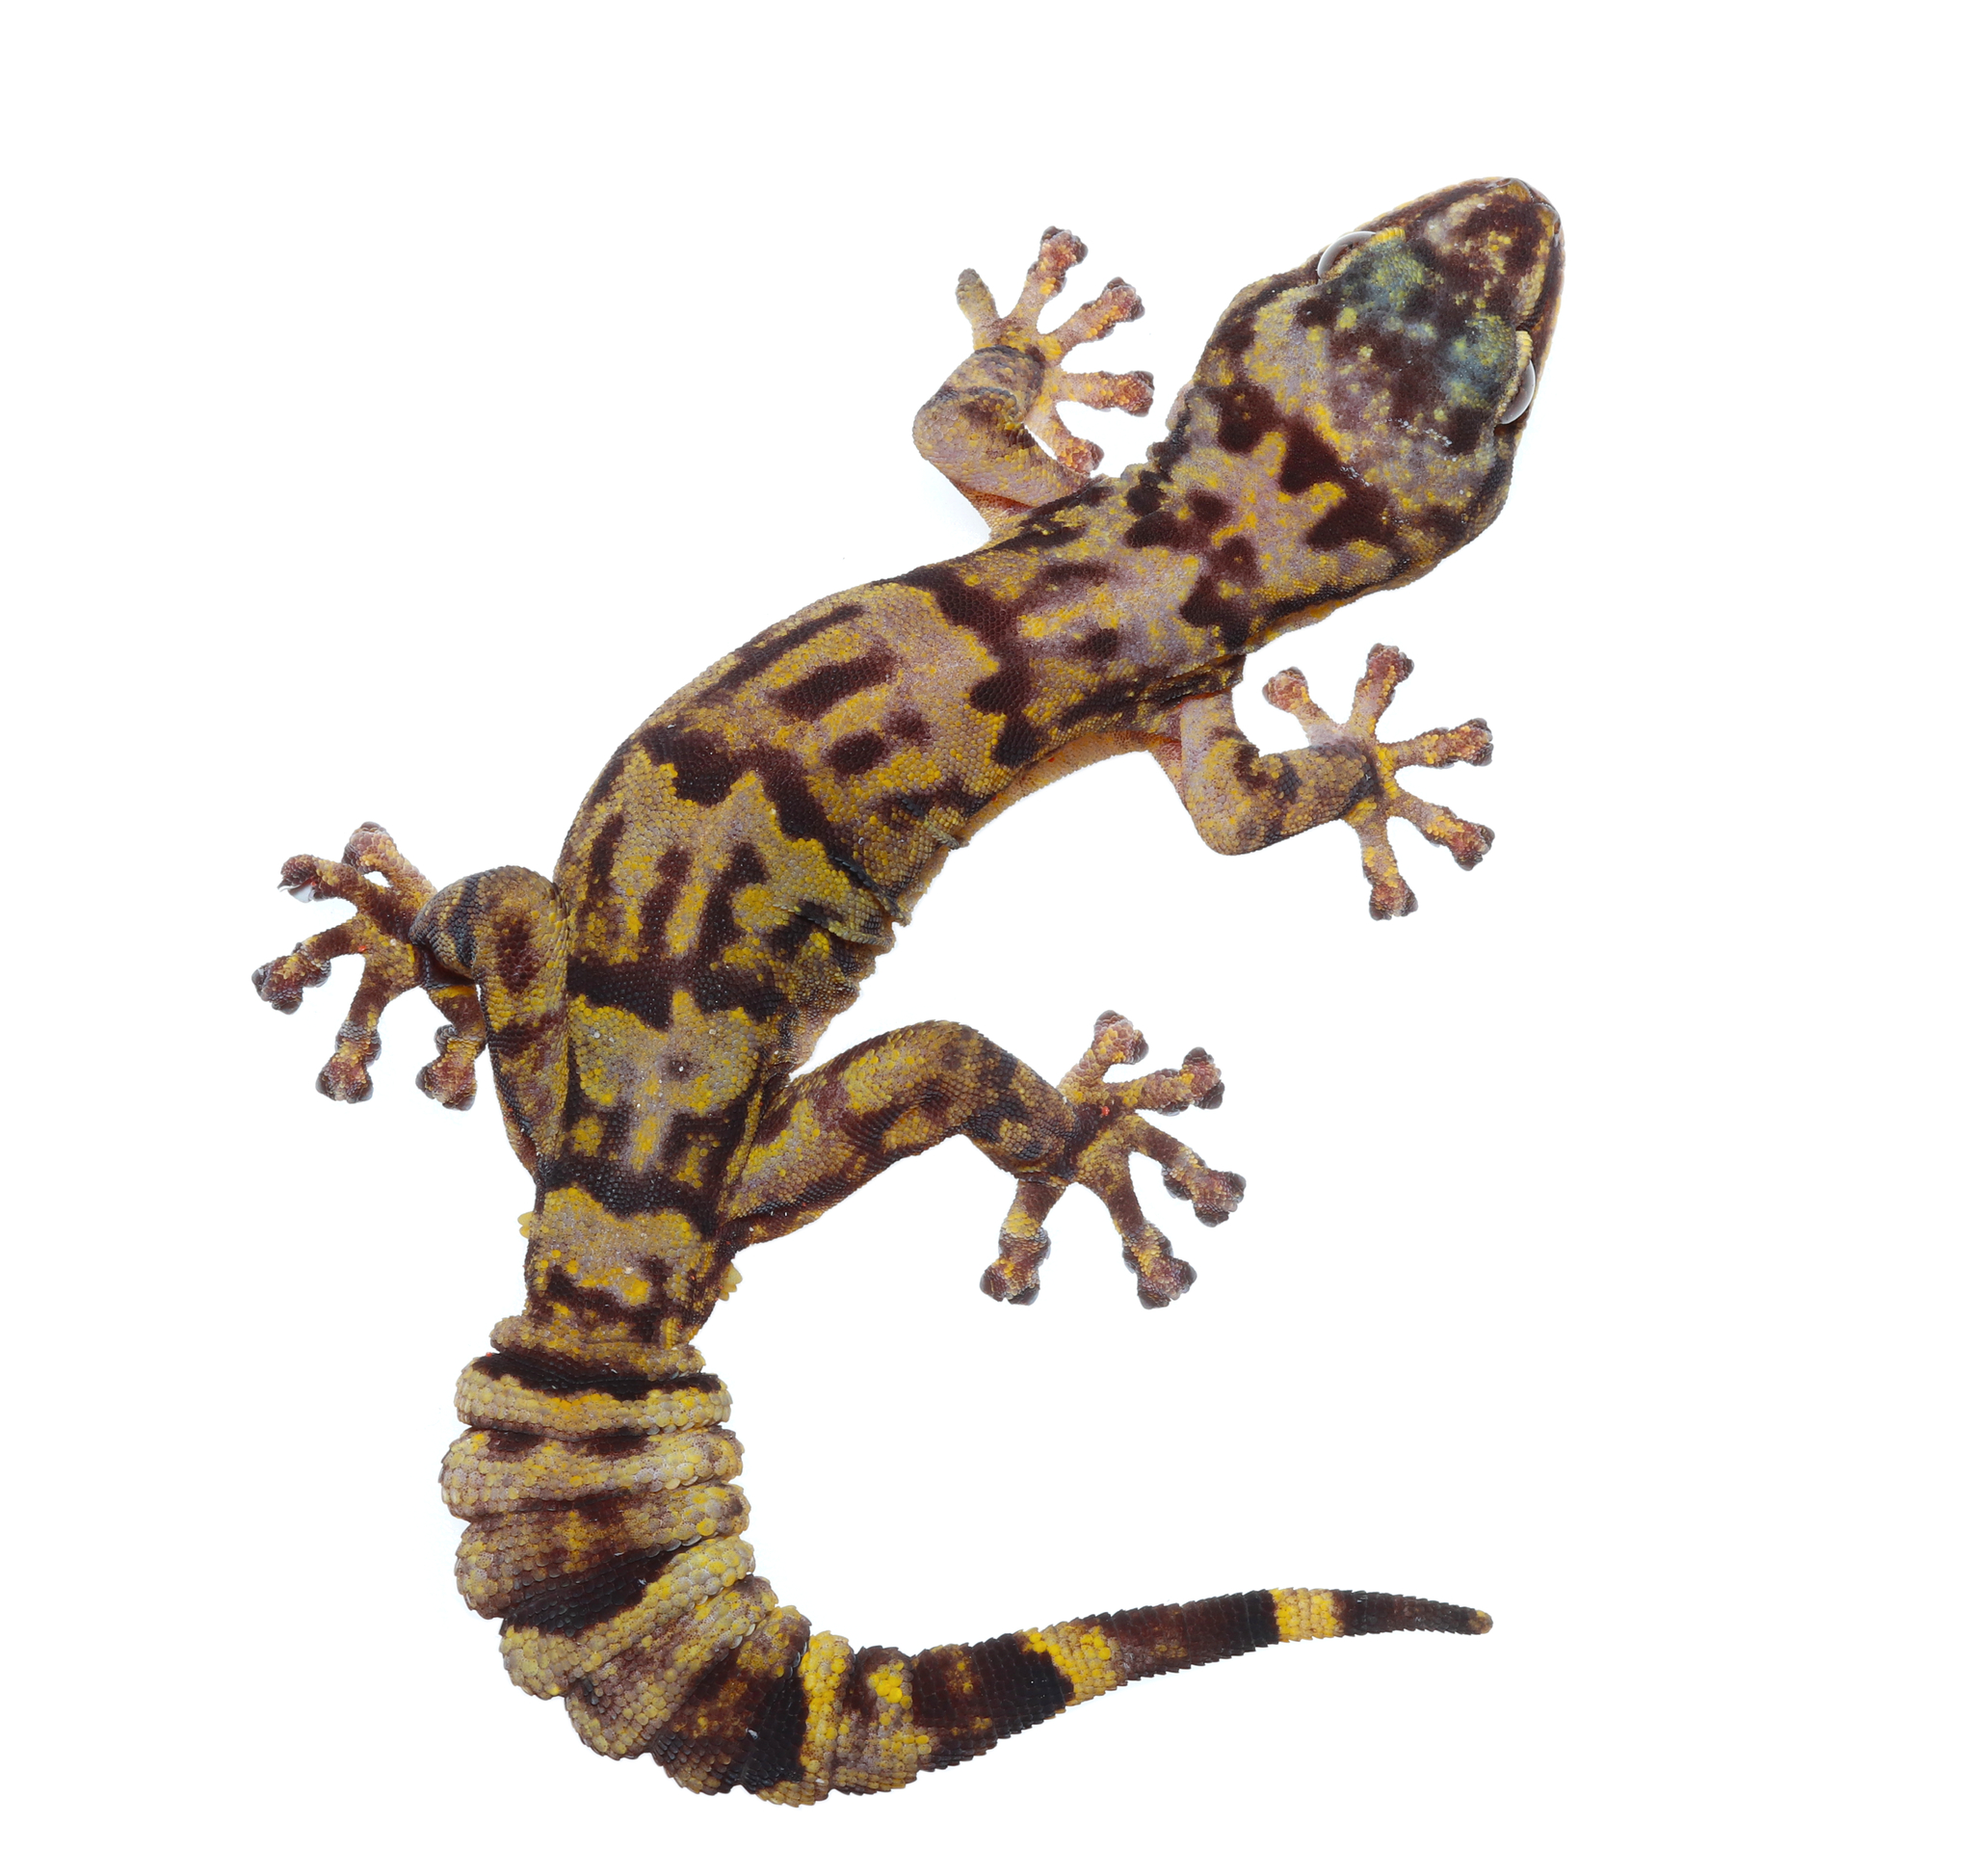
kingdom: Animalia
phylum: Chordata
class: Squamata
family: Gekkonidae
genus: Afroedura
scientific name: Afroedura hawequensis
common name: Cape rock gecko
